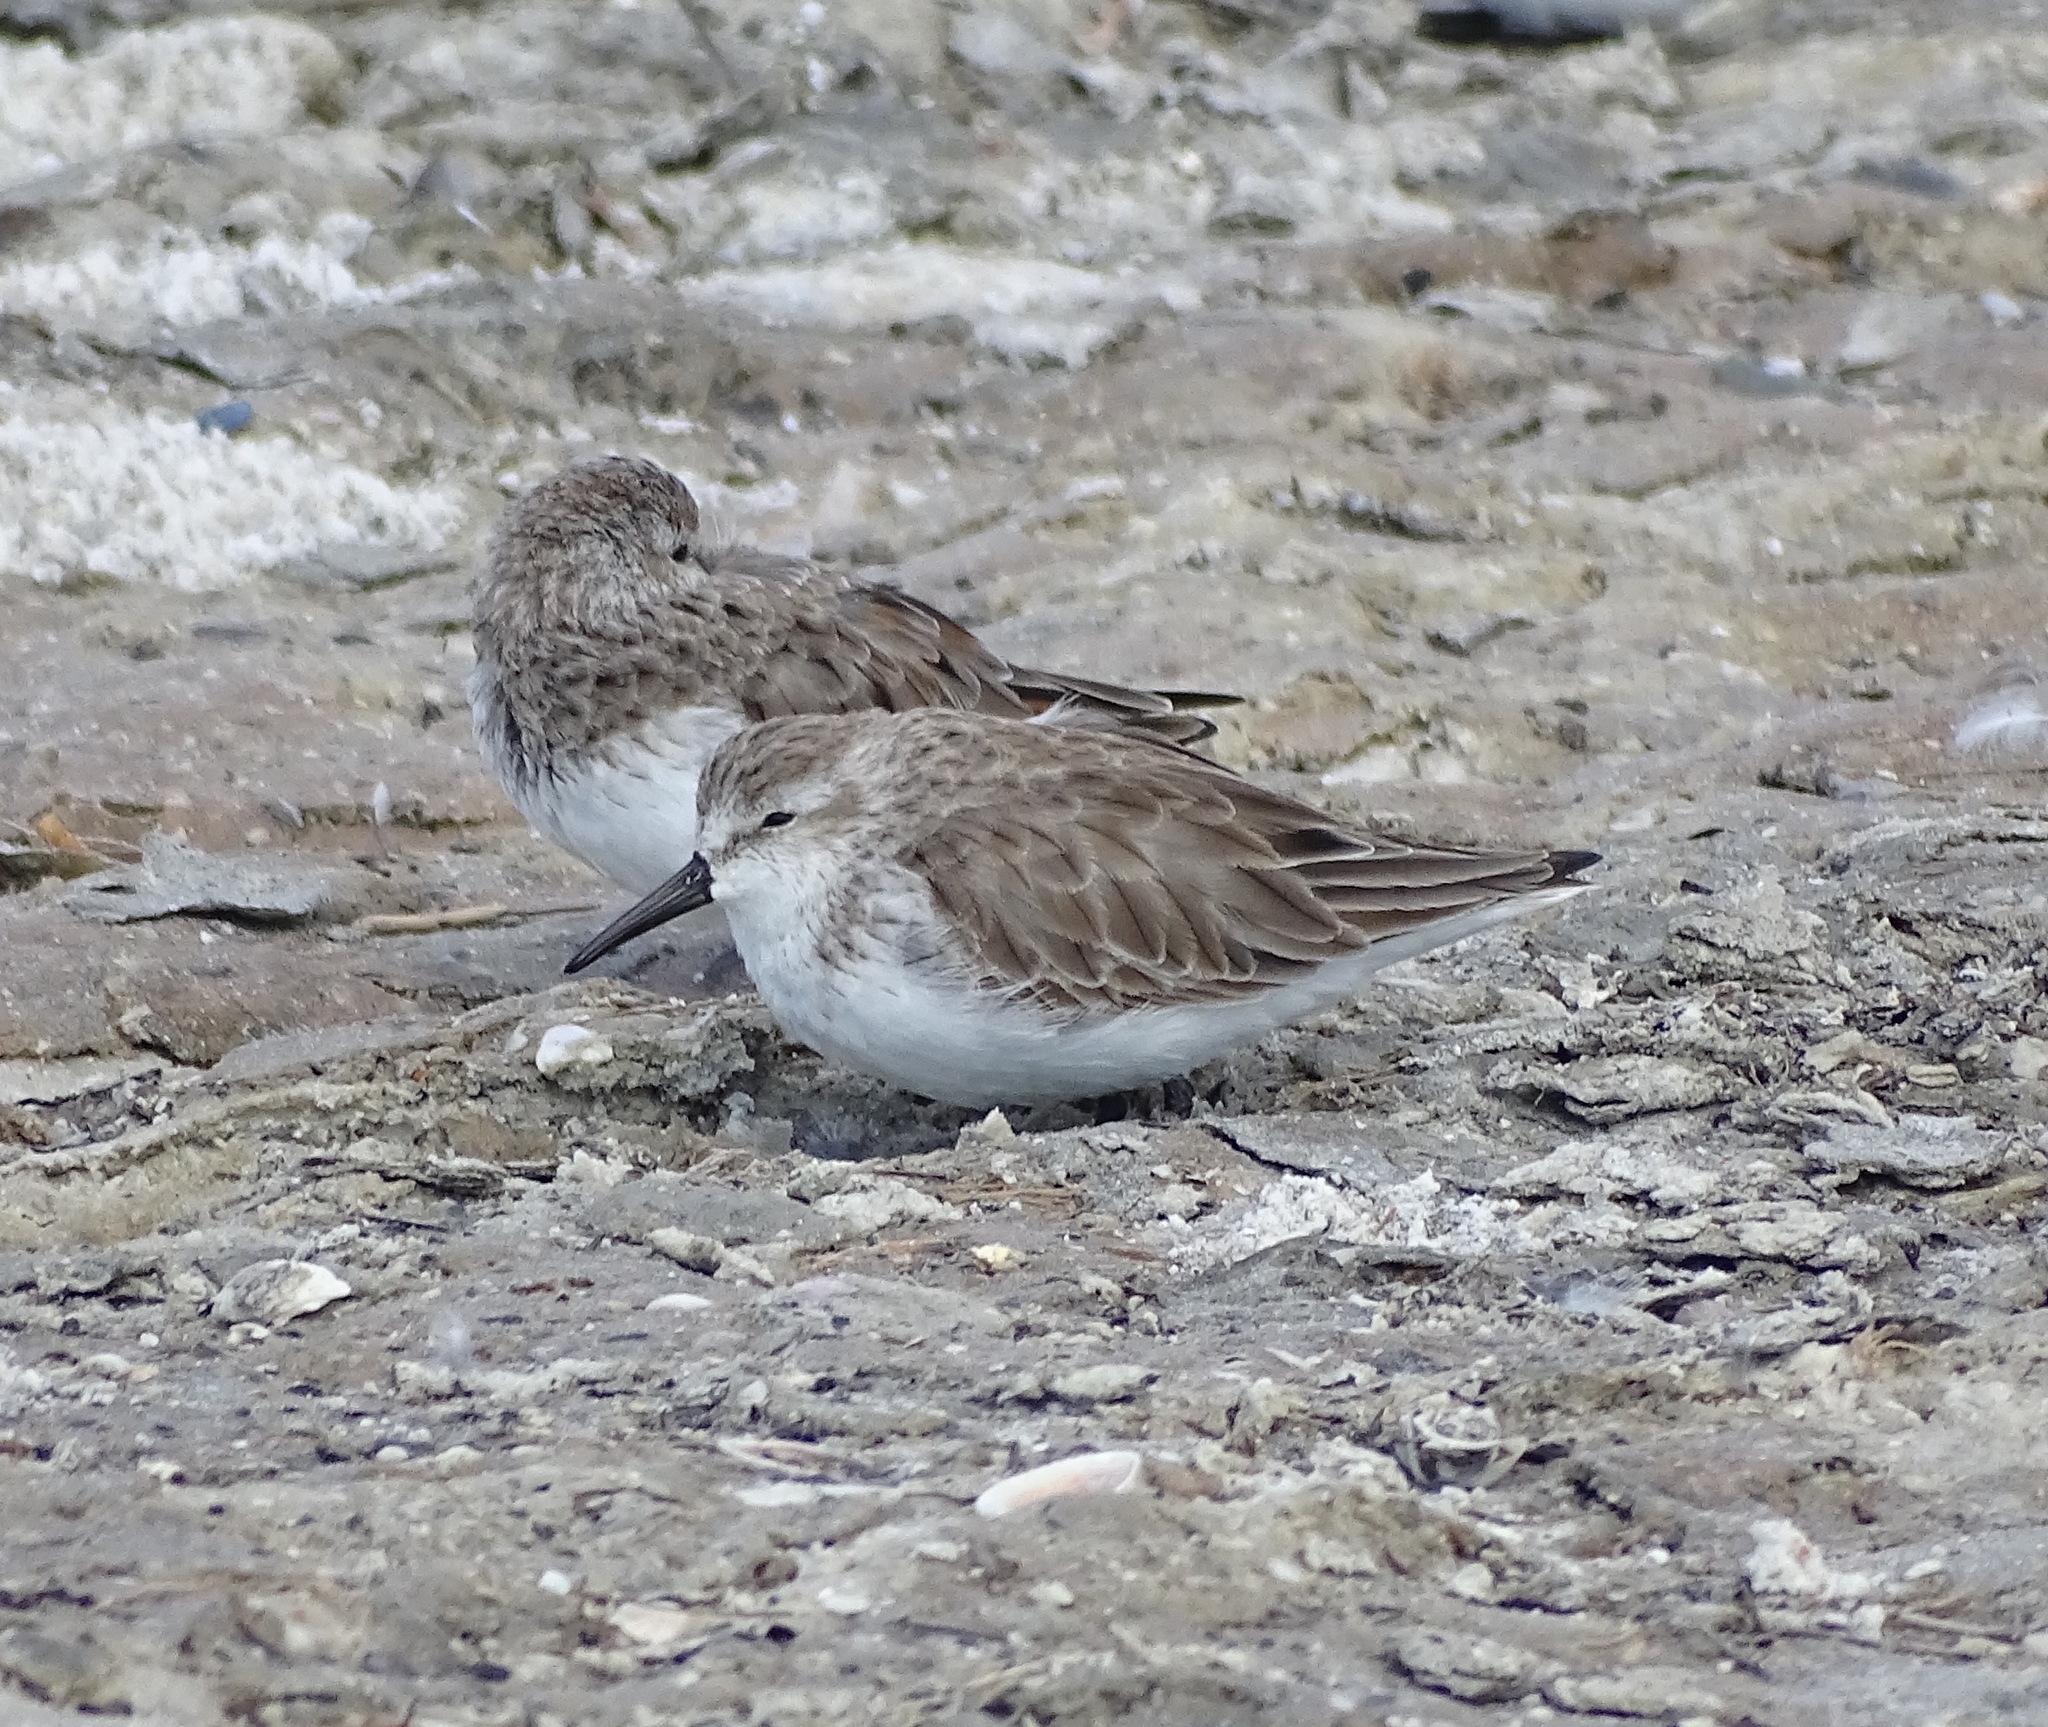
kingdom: Animalia
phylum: Chordata
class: Aves
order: Charadriiformes
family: Scolopacidae
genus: Calidris
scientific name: Calidris mauri
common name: Western sandpiper
